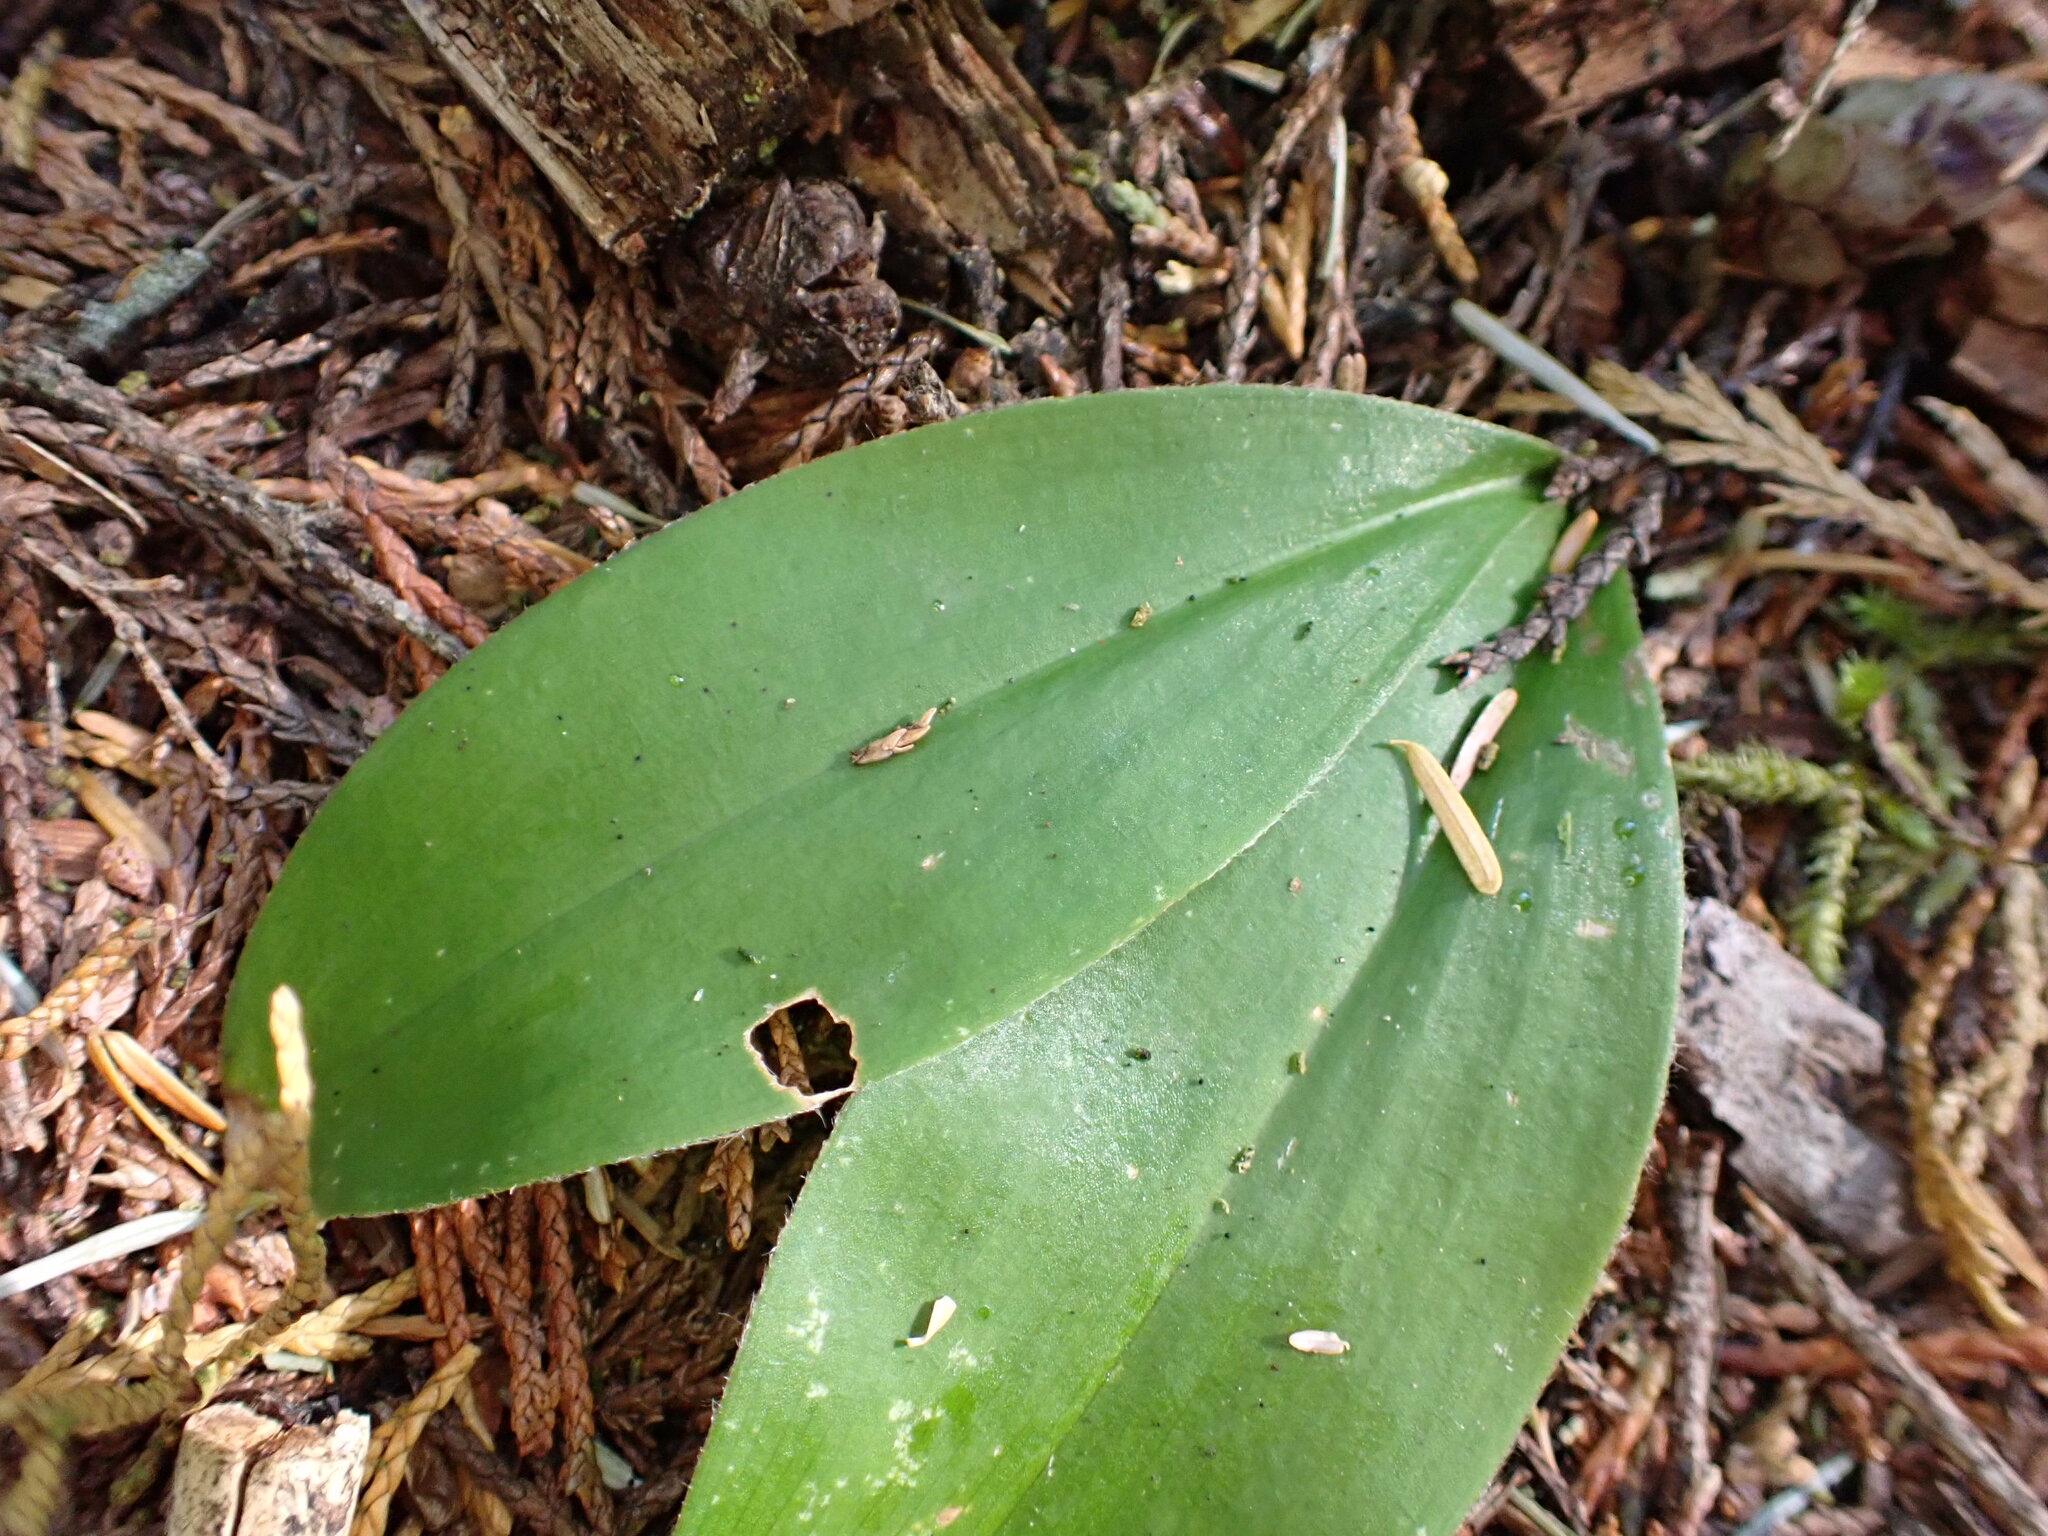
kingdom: Plantae
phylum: Tracheophyta
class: Liliopsida
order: Liliales
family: Liliaceae
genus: Clintonia
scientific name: Clintonia uniflora
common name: Queen's cup
